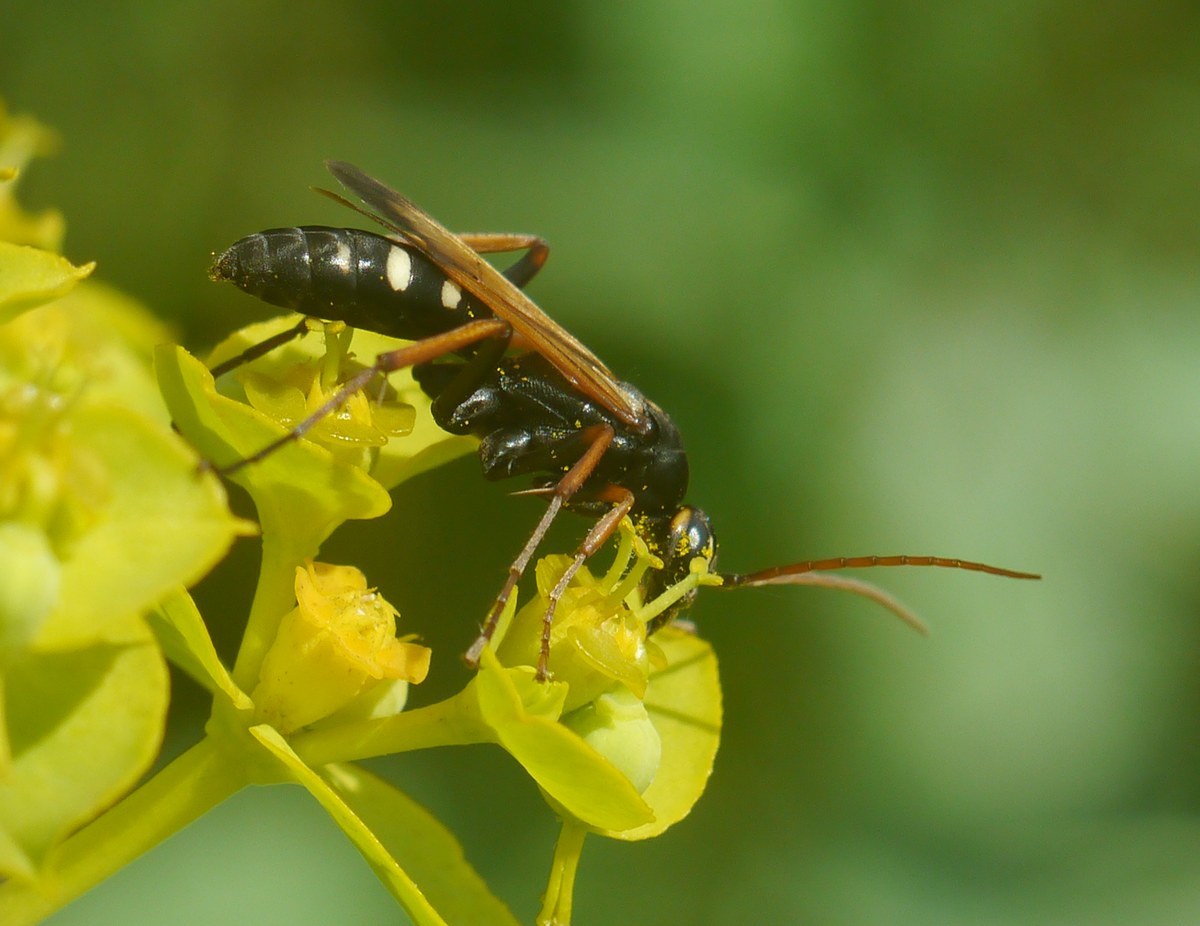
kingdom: Animalia
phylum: Arthropoda
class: Insecta
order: Hymenoptera
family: Pompilidae
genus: Cryptocheilus
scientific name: Cryptocheilus variabilis
